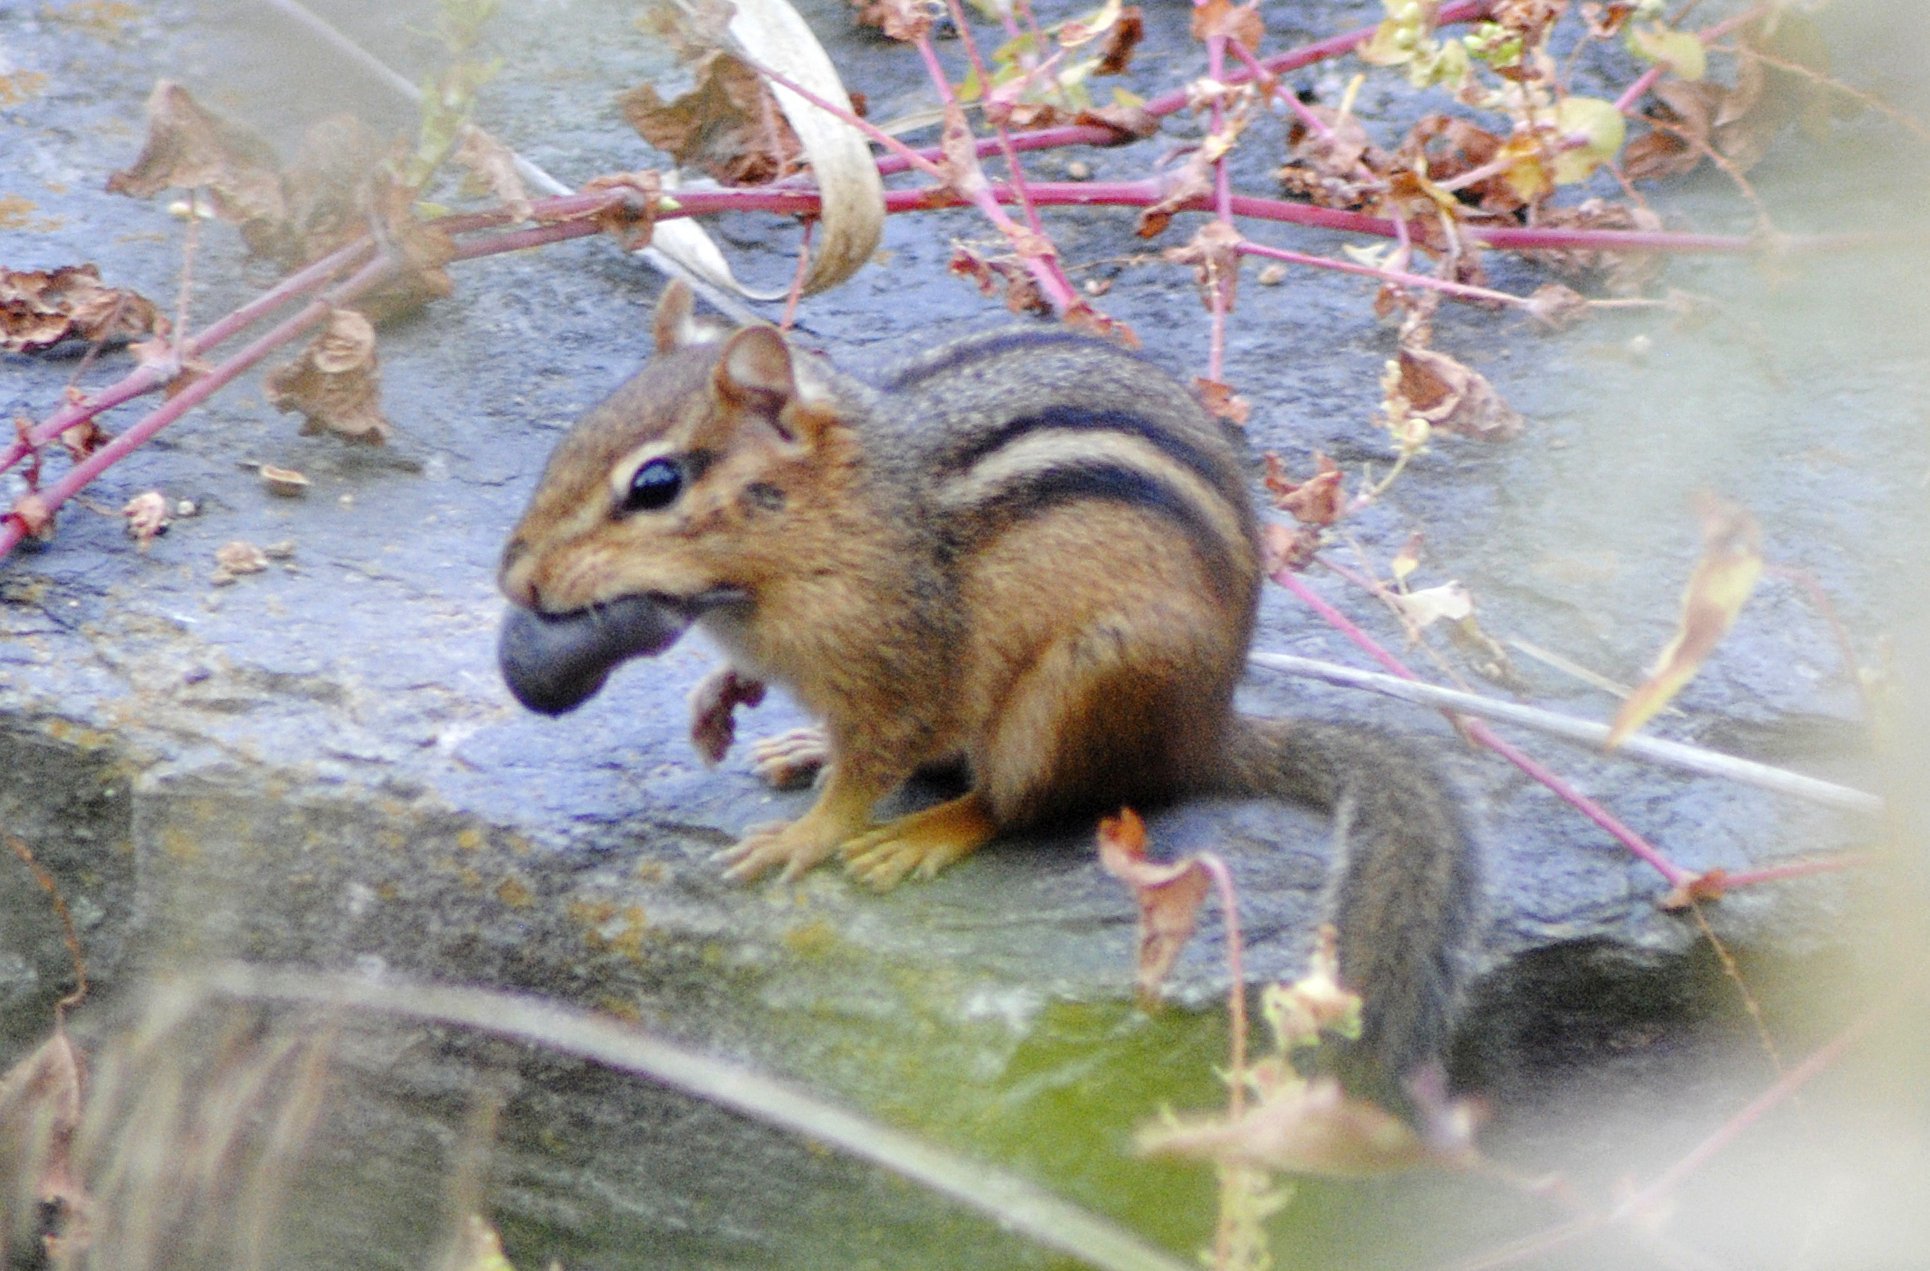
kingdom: Animalia
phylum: Chordata
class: Mammalia
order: Rodentia
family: Sciuridae
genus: Tamias
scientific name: Tamias striatus
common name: Eastern chipmunk
